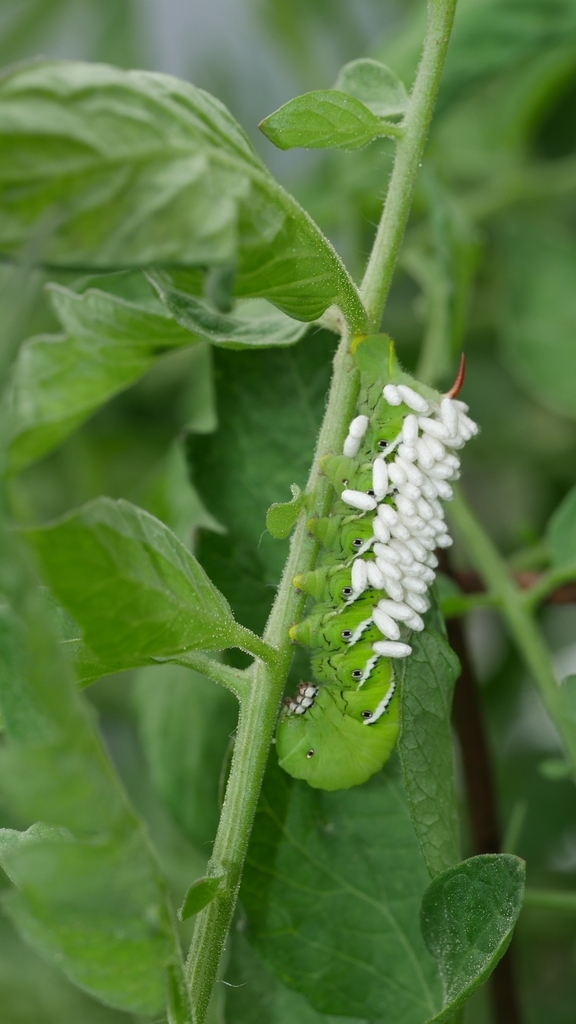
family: Polydnaviriformidae
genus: Bracoviriform
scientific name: Bracoviriform congregatae
